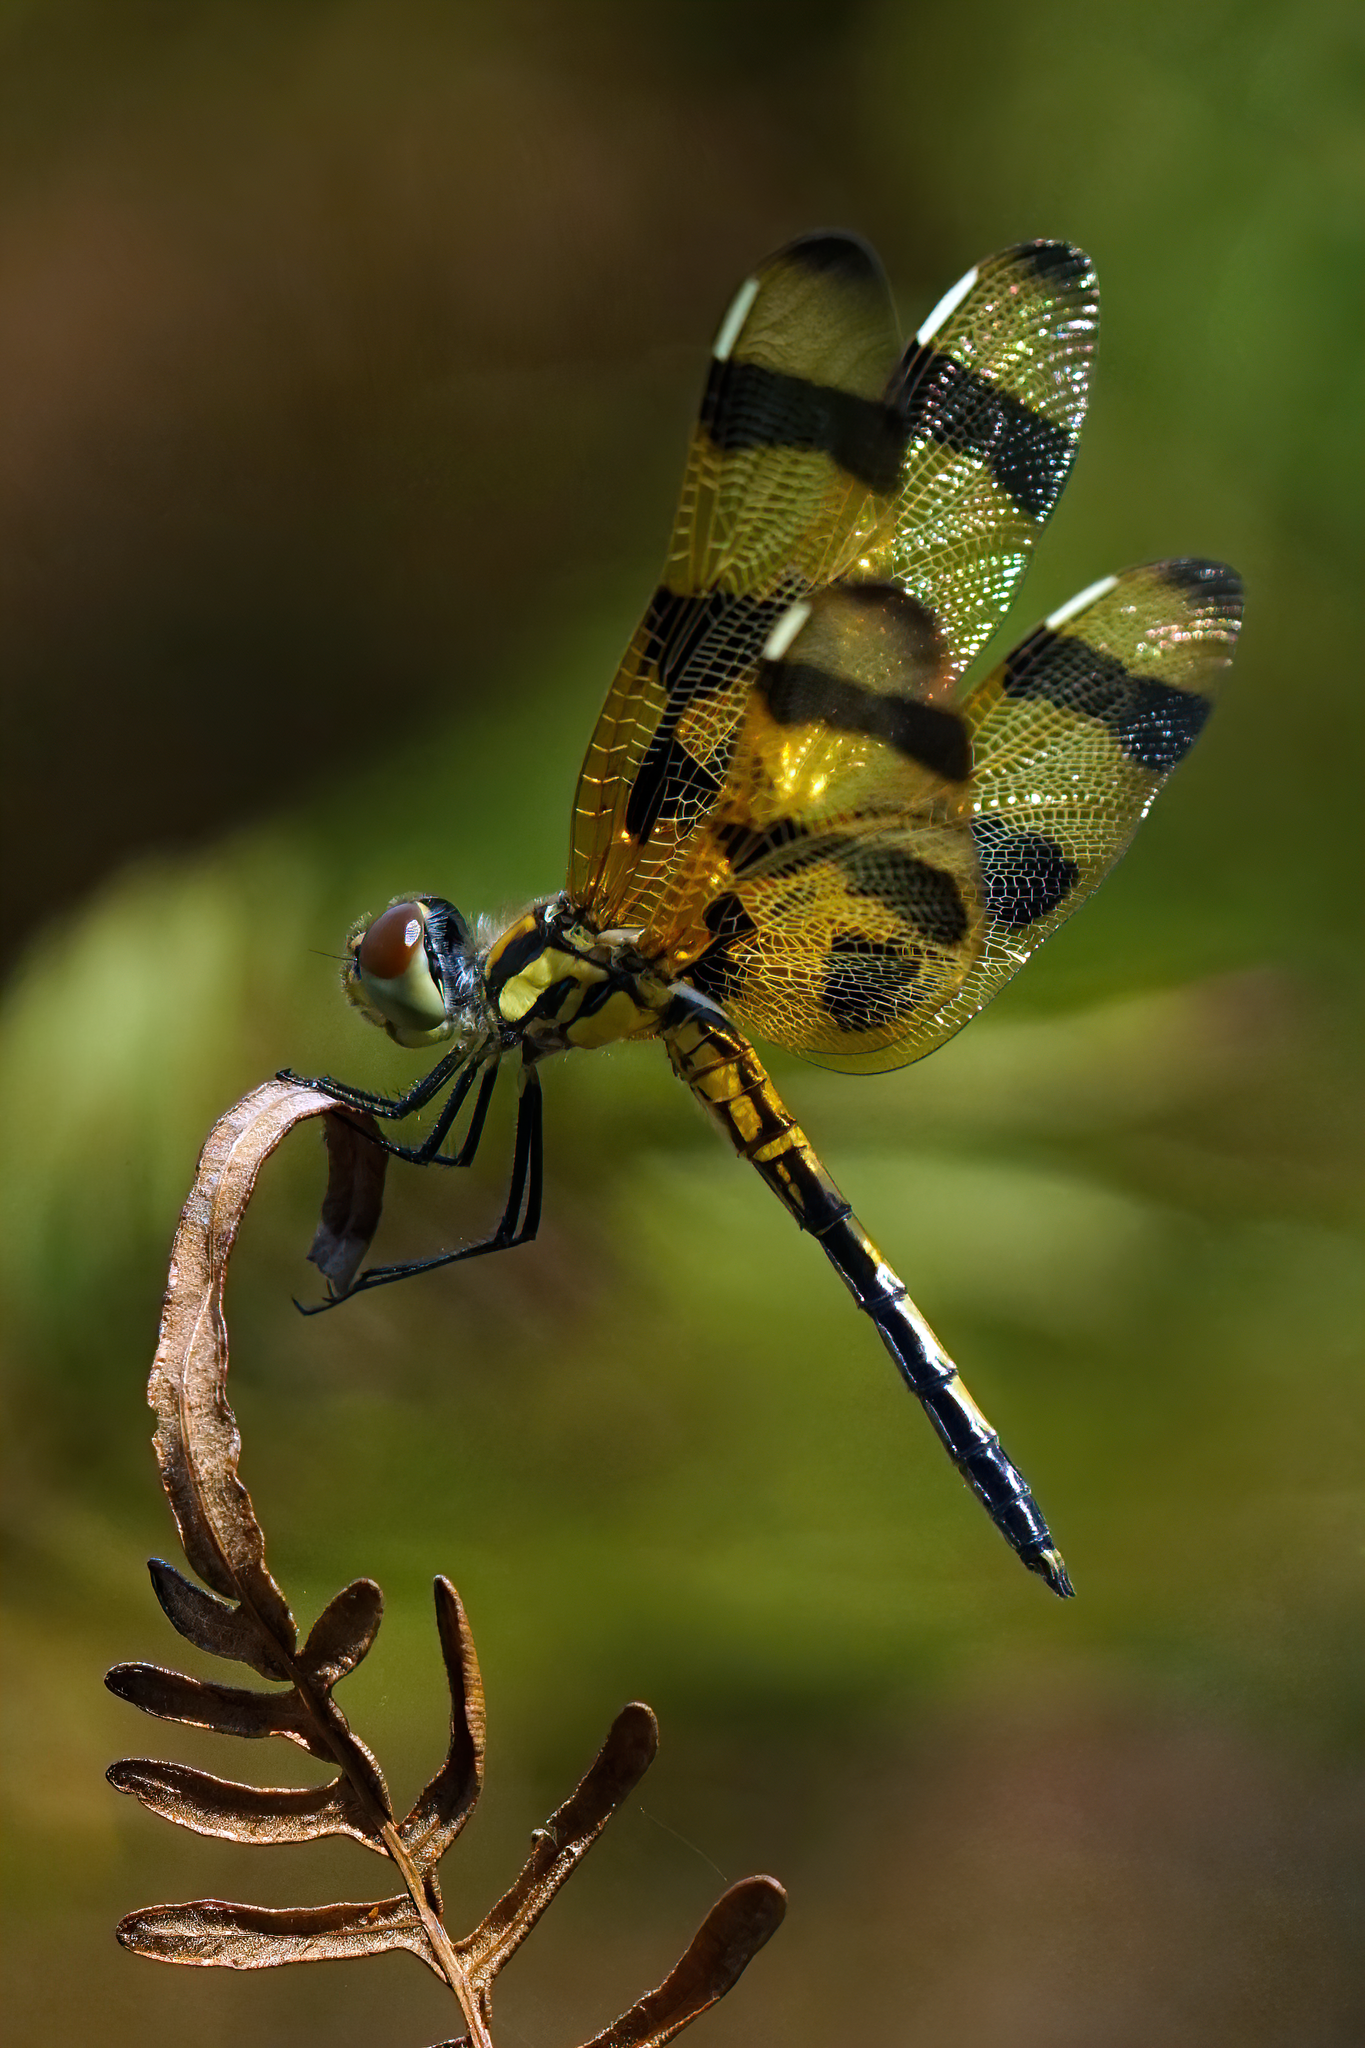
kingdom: Animalia
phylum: Arthropoda
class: Insecta
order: Odonata
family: Libellulidae
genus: Celithemis
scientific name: Celithemis eponina
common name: Halloween pennant
